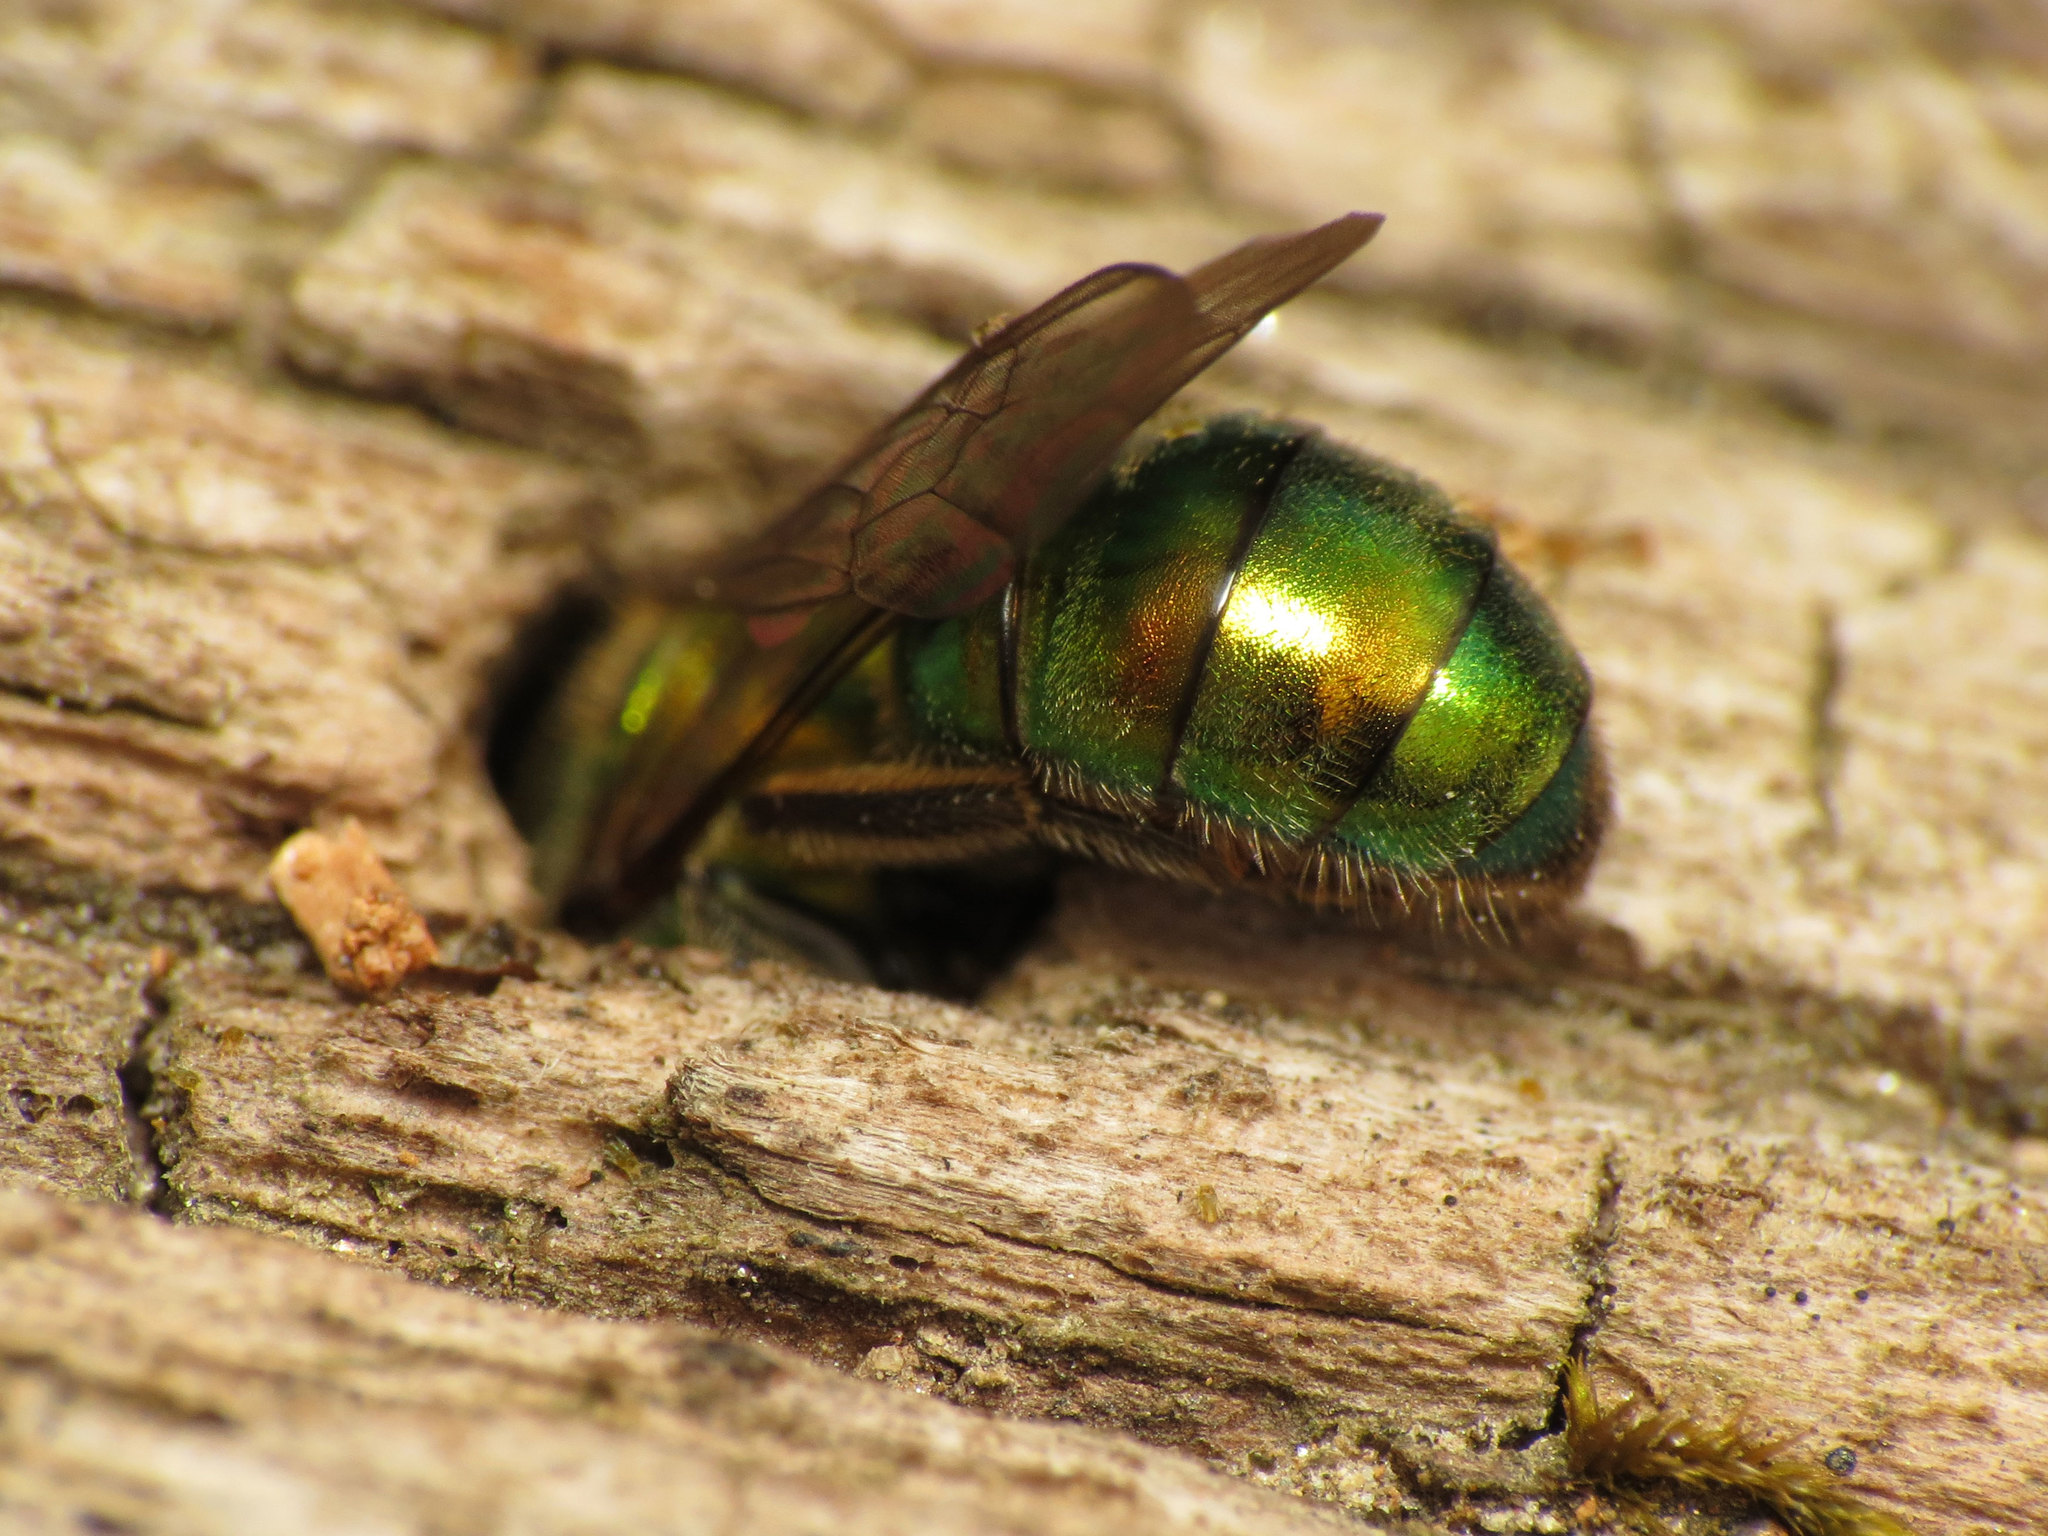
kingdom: Animalia
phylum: Arthropoda
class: Insecta
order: Hymenoptera
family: Halictidae
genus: Augochlora
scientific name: Augochlora pura
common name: Pure green sweat bee
